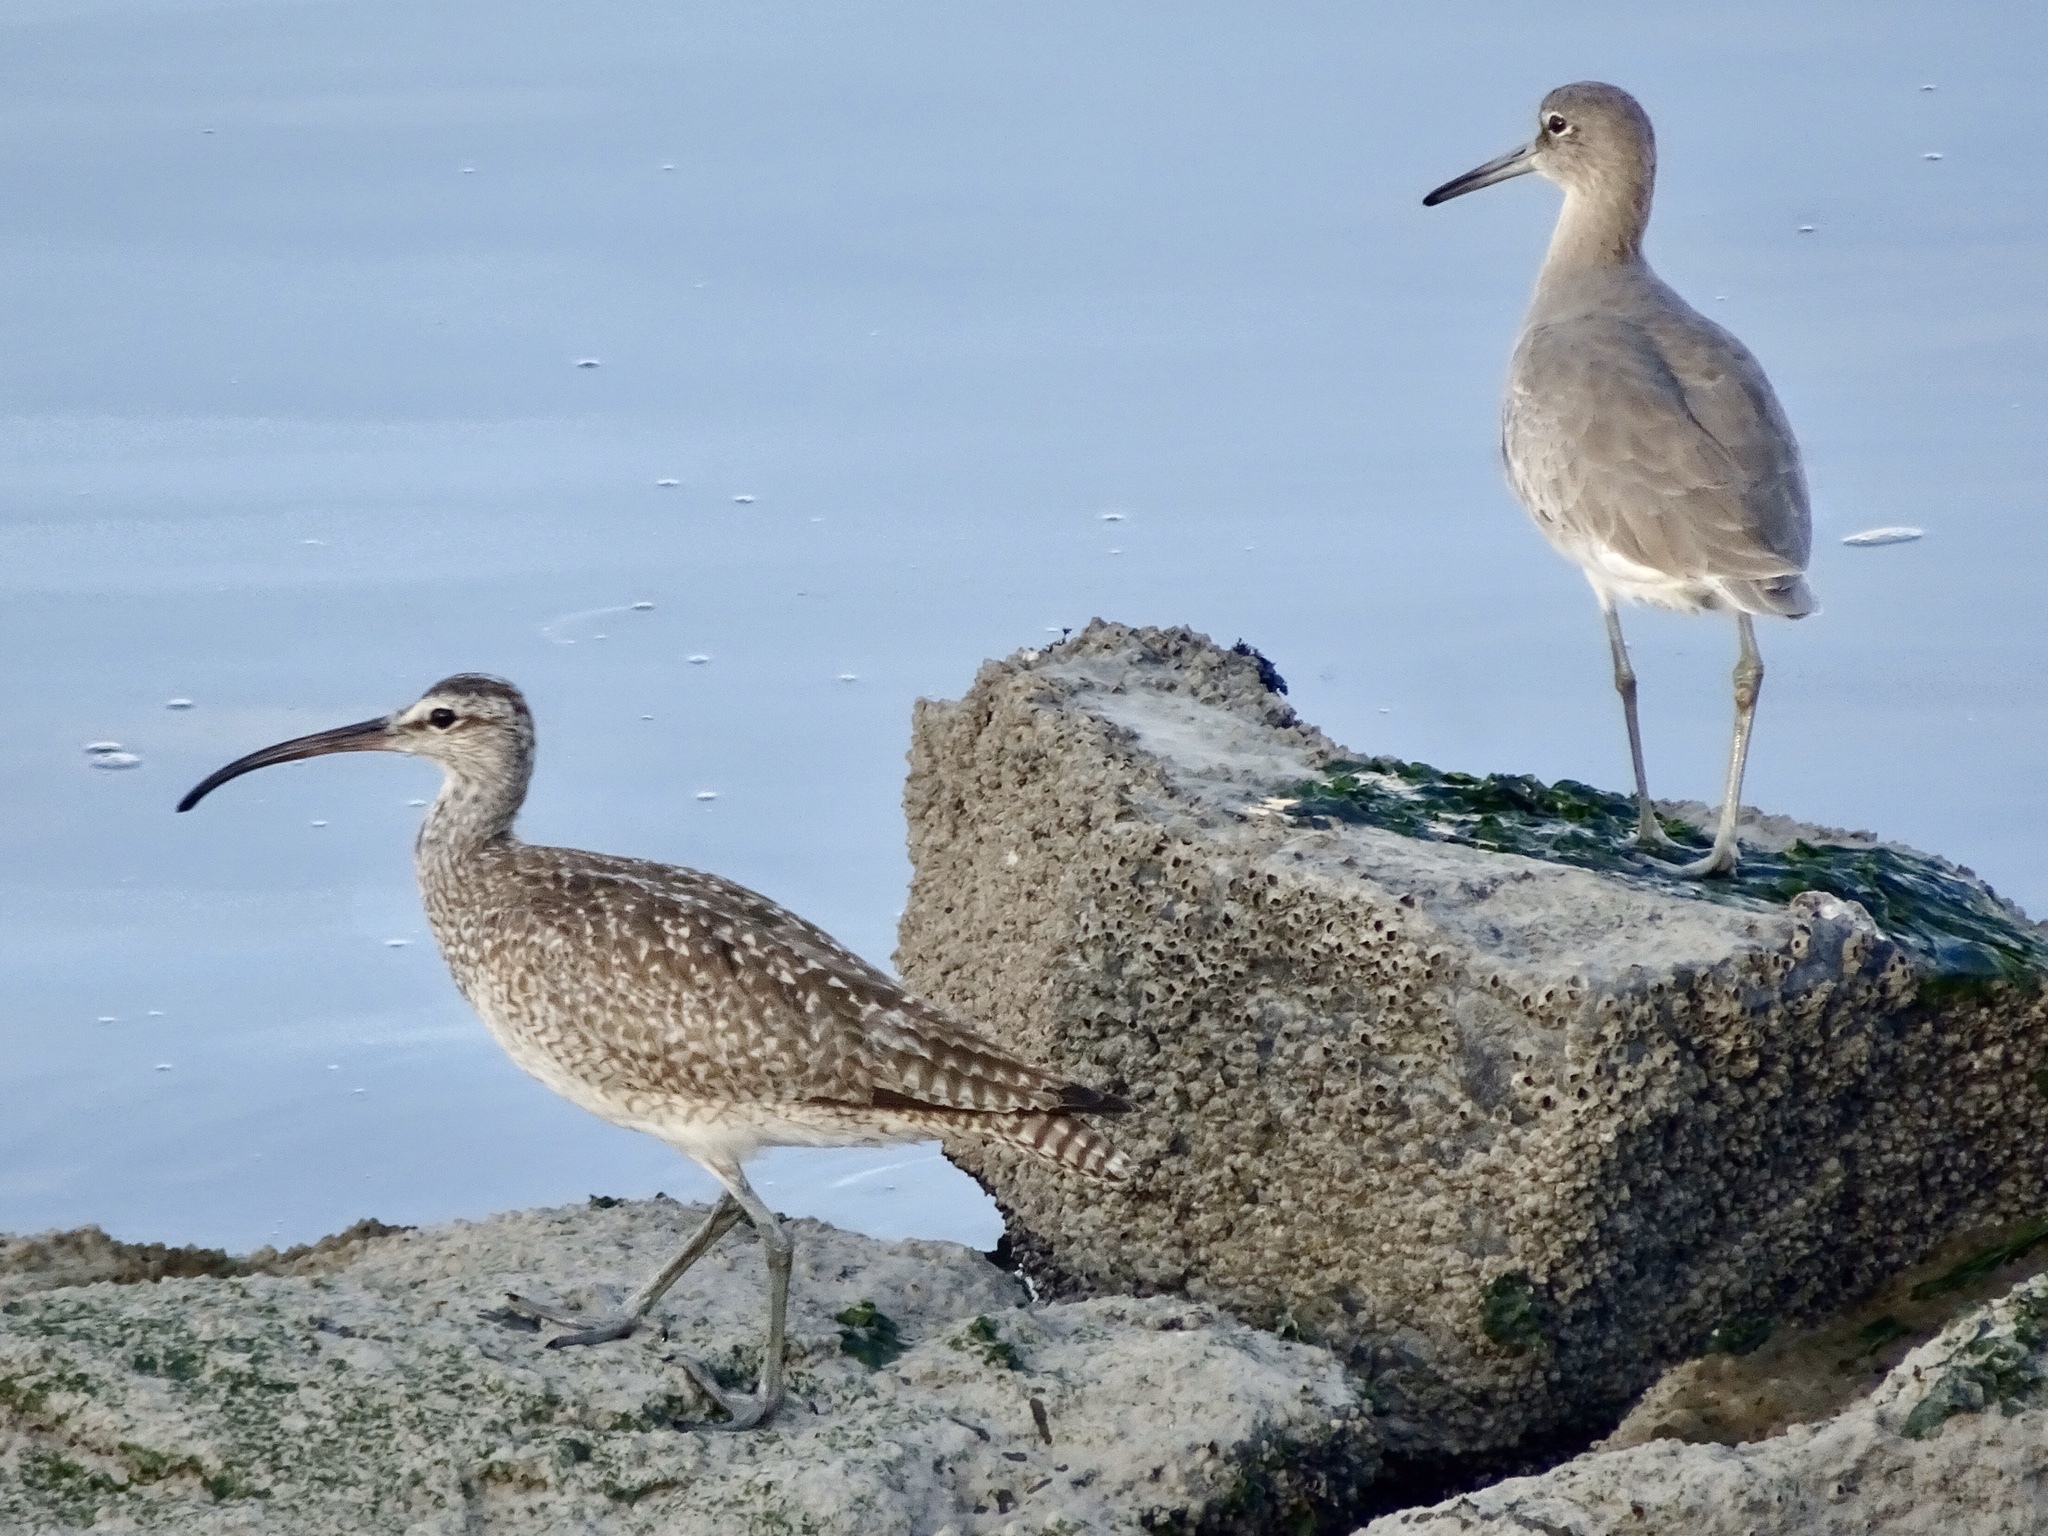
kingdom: Animalia
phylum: Chordata
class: Aves
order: Charadriiformes
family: Scolopacidae
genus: Numenius
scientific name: Numenius phaeopus
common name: Whimbrel
